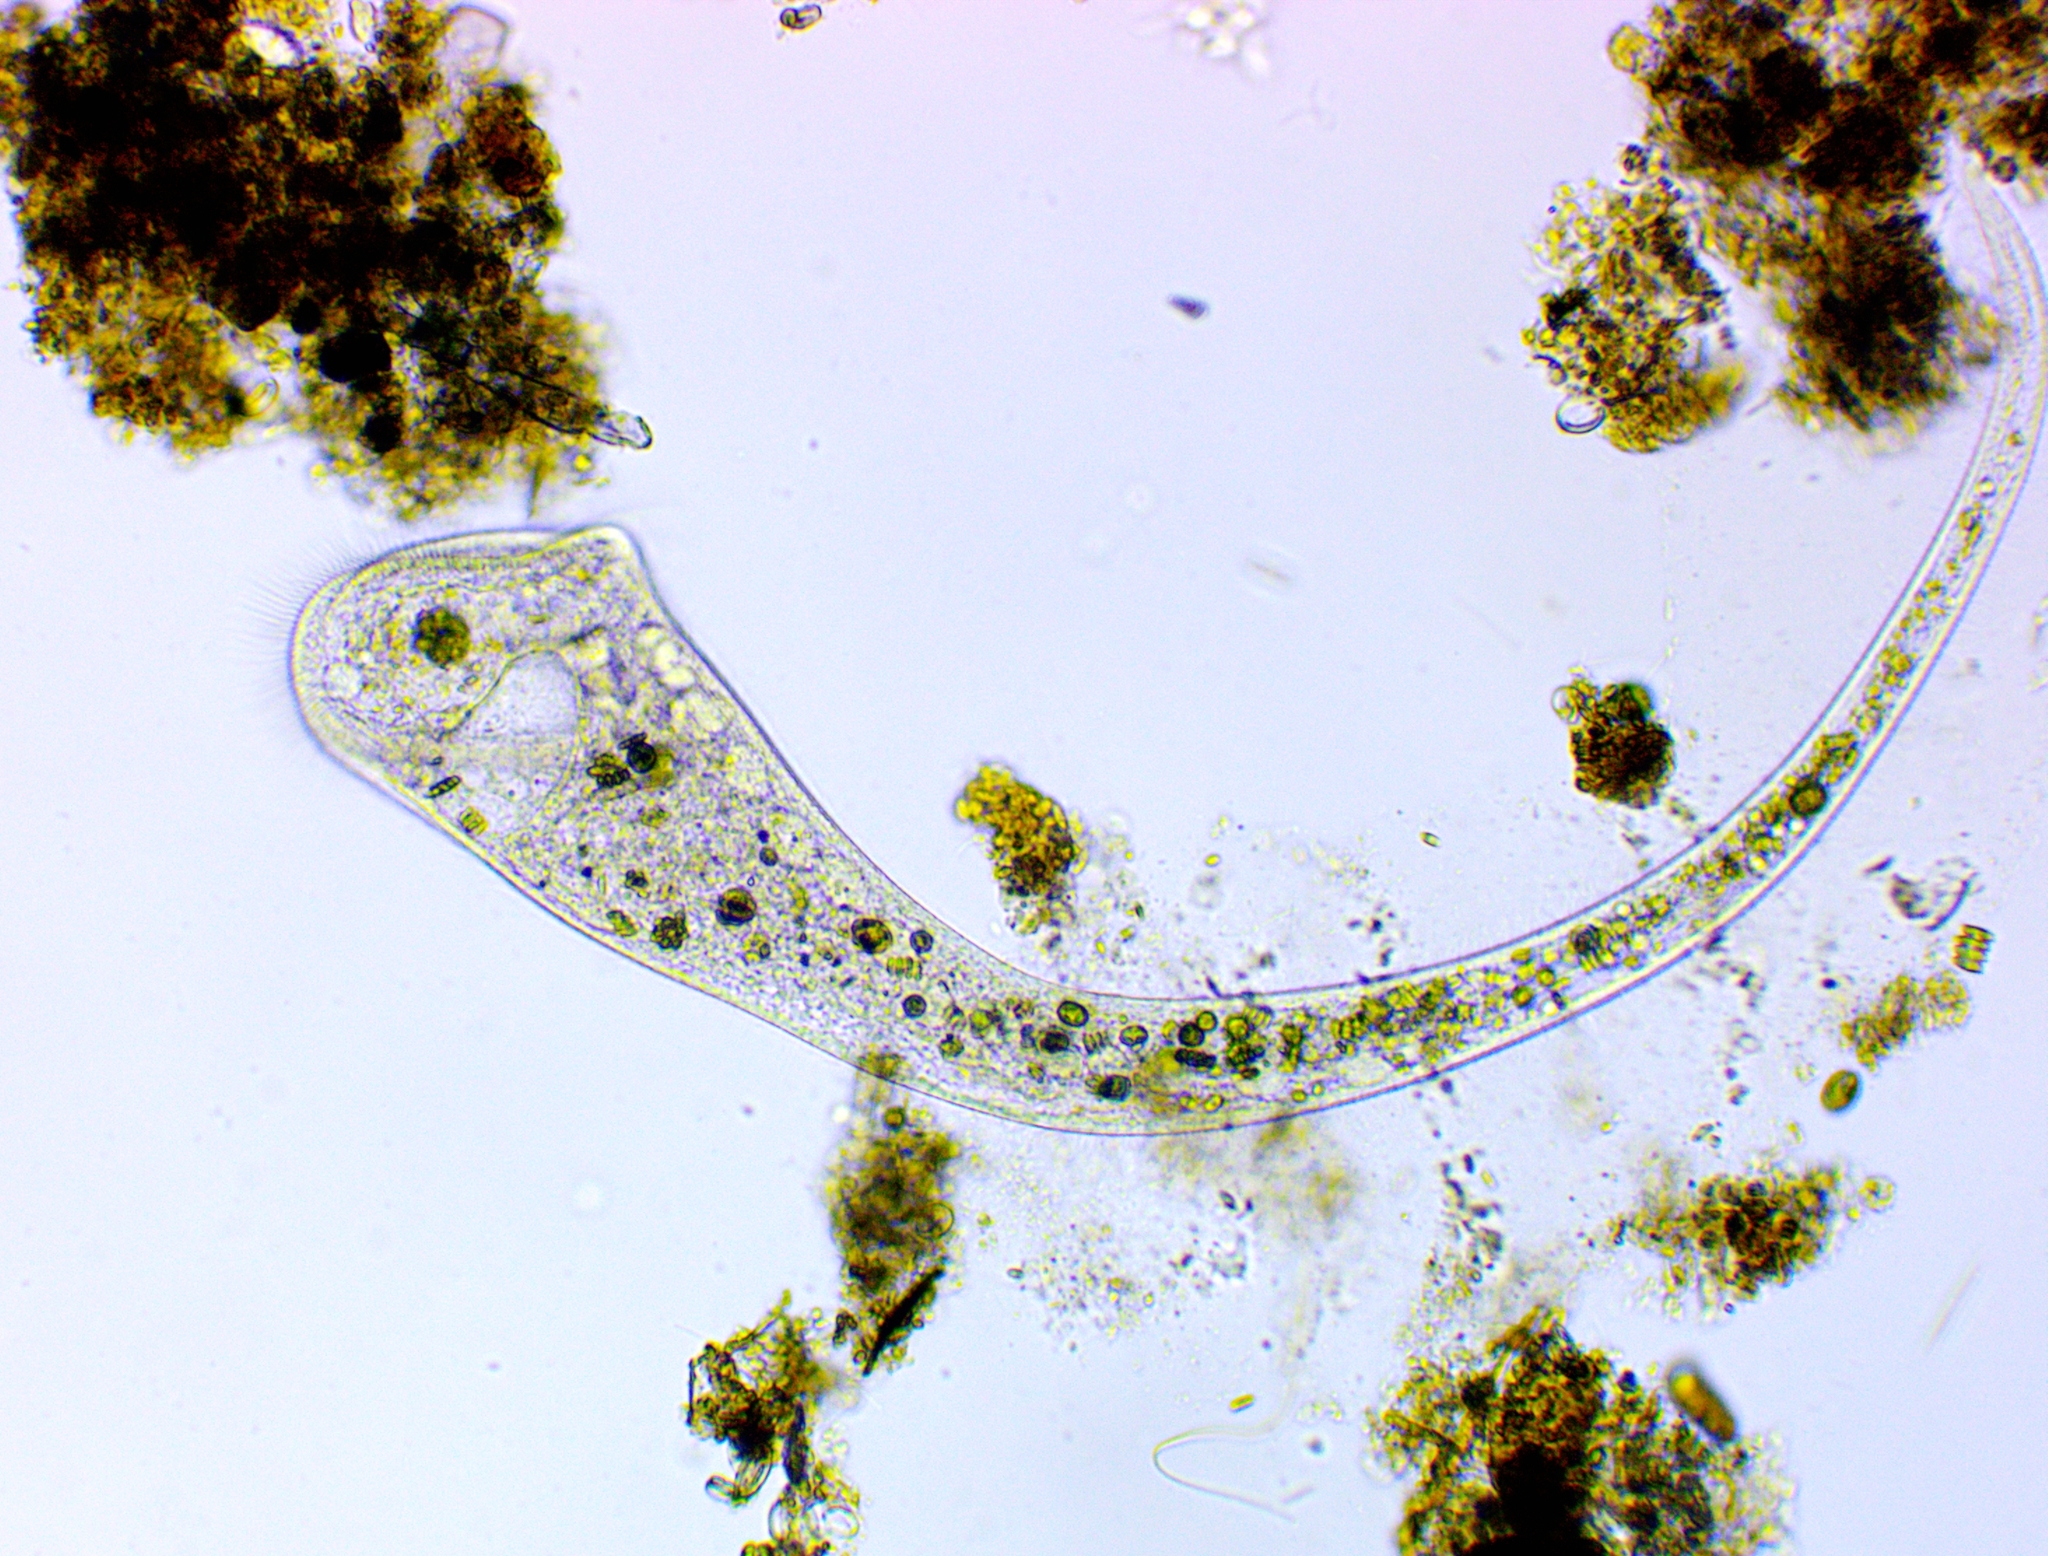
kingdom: Chromista
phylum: Ciliophora
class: Heterotrichea
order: Heterotrichida
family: Stentoridae
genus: Stentor
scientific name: Stentor muelleri
